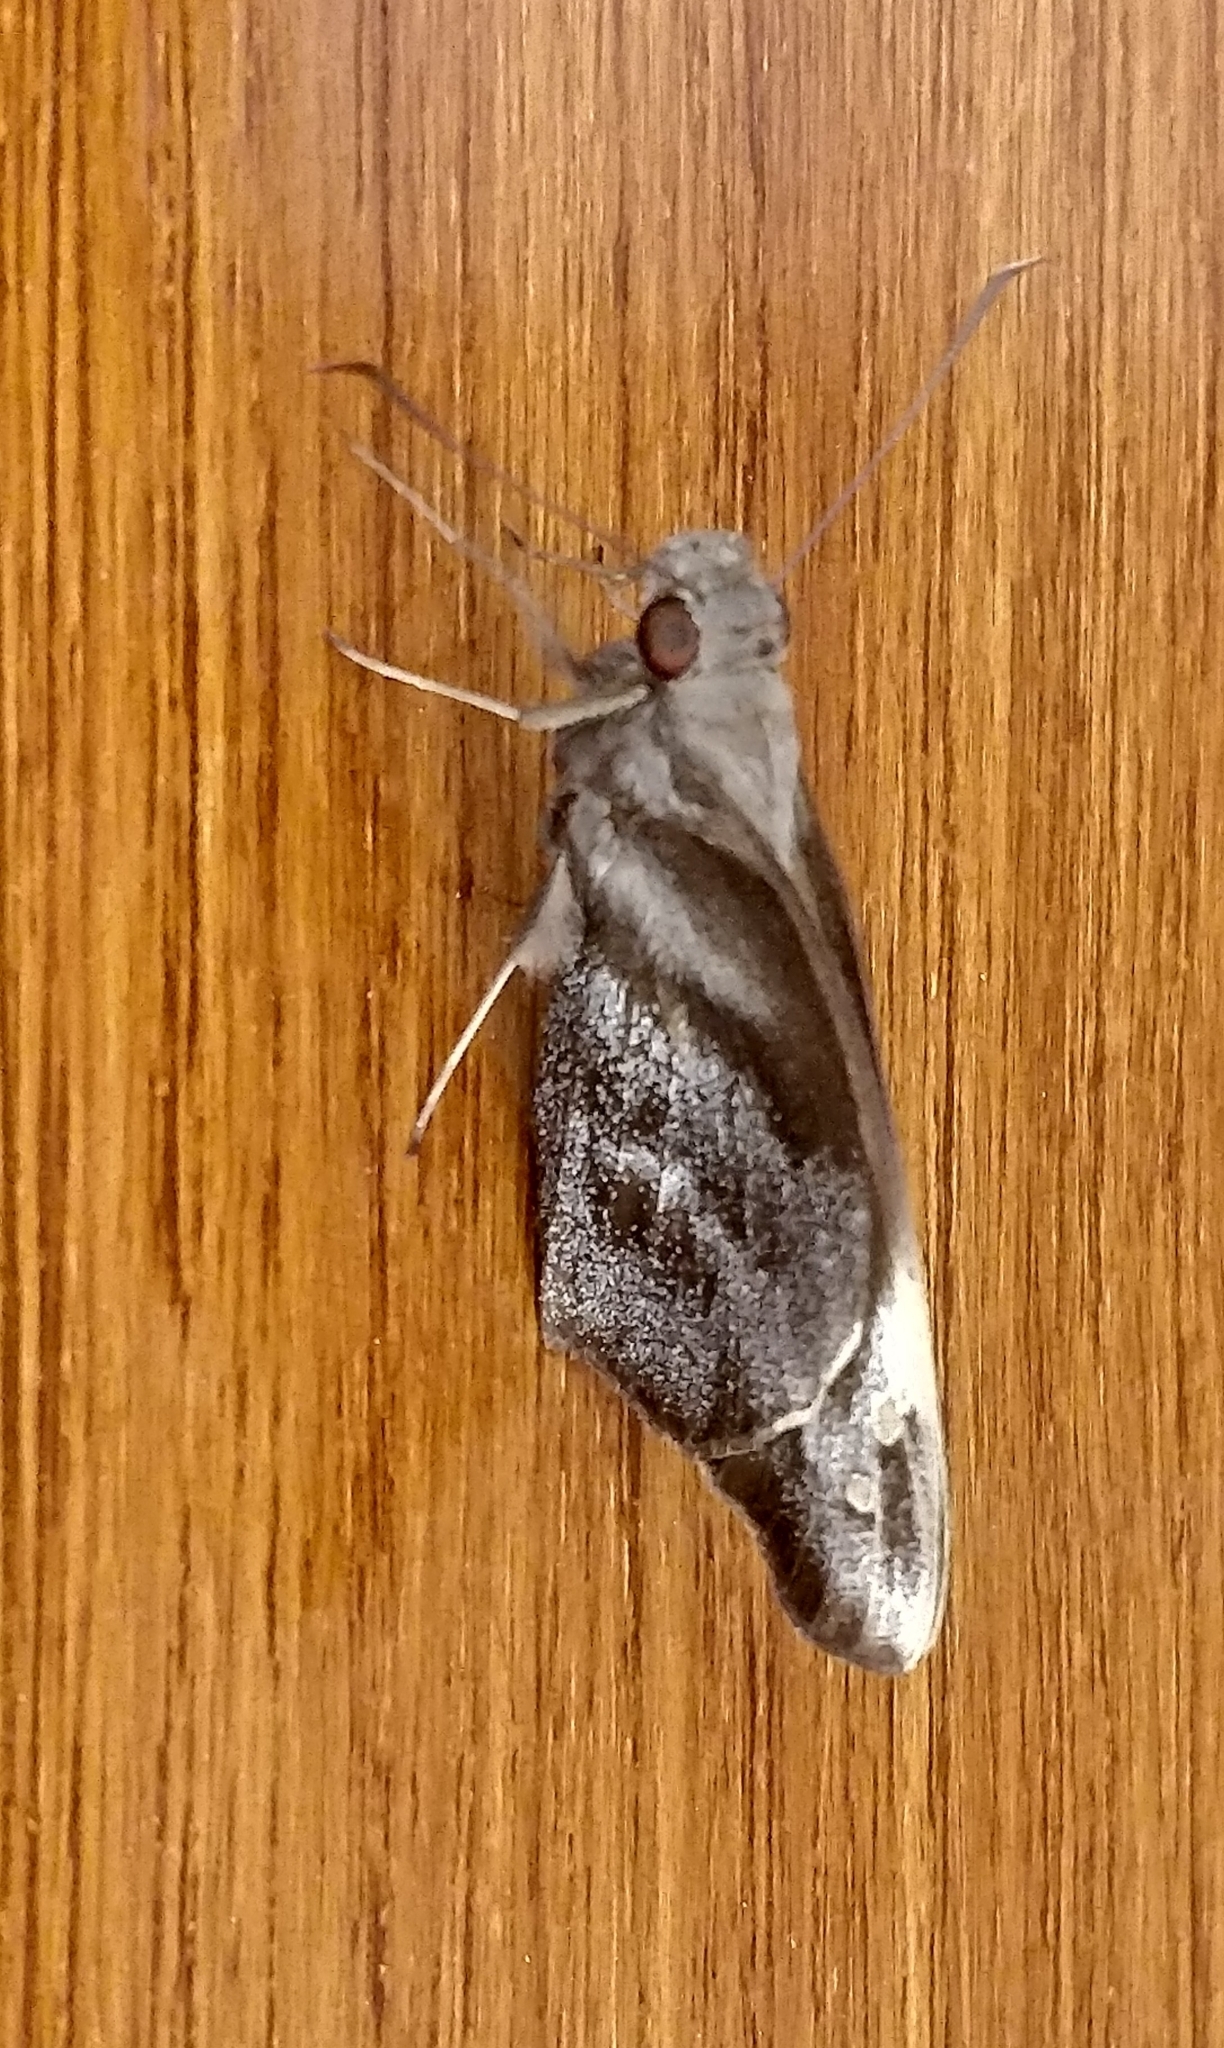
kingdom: Animalia
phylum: Arthropoda
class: Insecta
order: Lepidoptera
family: Hesperiidae
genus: Gangara
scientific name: Gangara thyrsis
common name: Giant redeye
